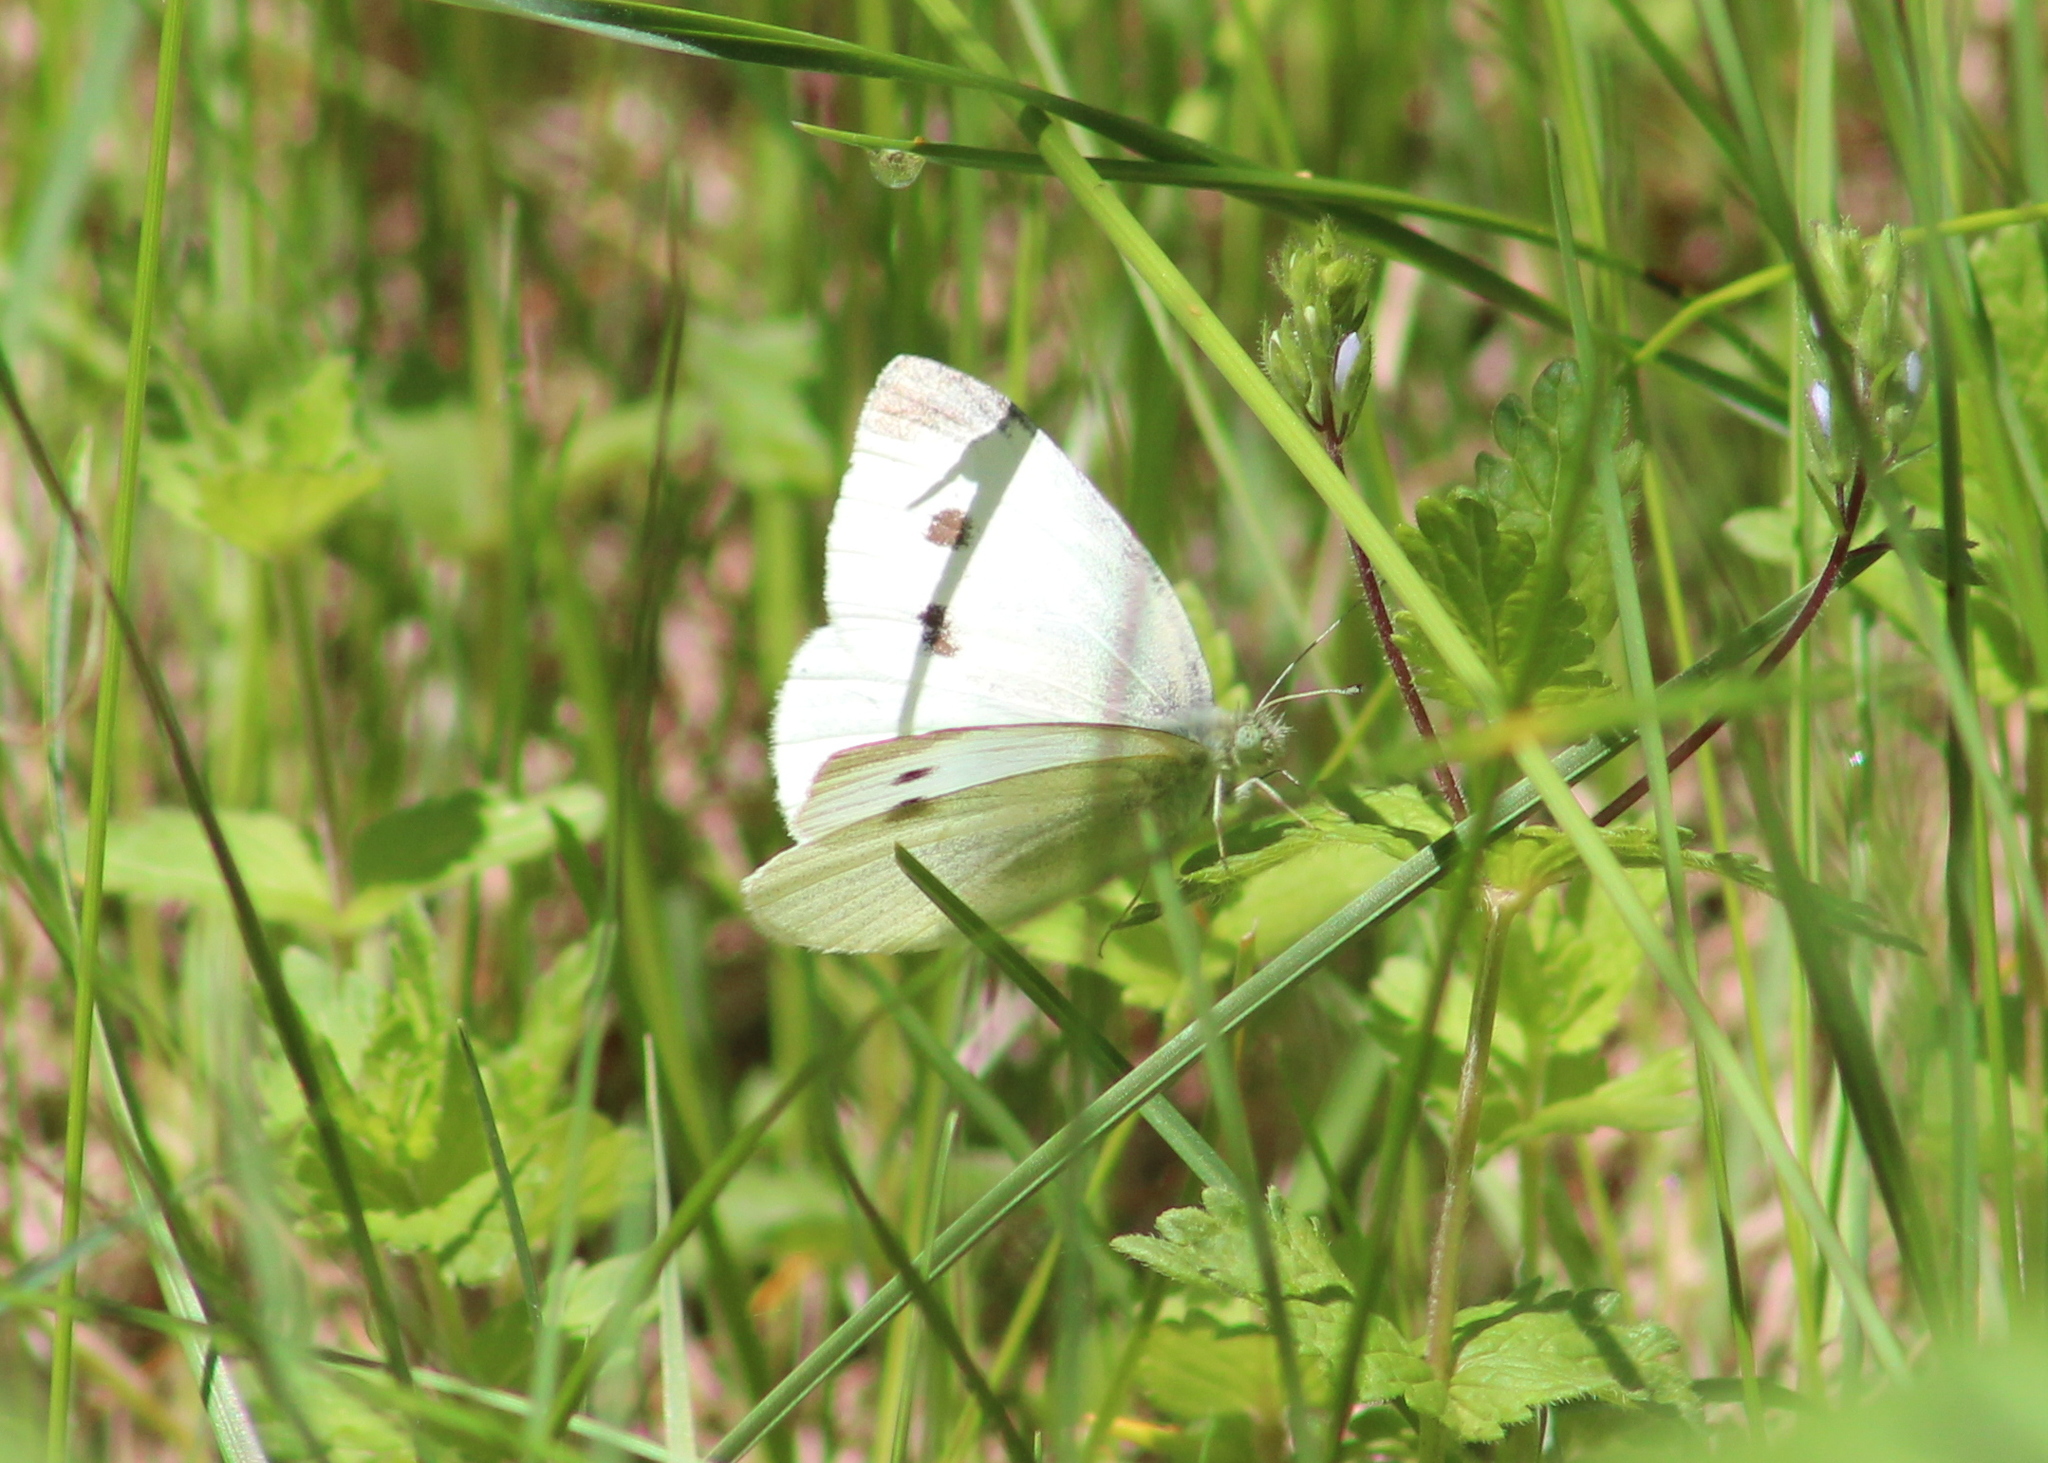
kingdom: Animalia
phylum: Arthropoda
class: Insecta
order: Lepidoptera
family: Pieridae
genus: Pieris
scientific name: Pieris rapae
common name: Small white
